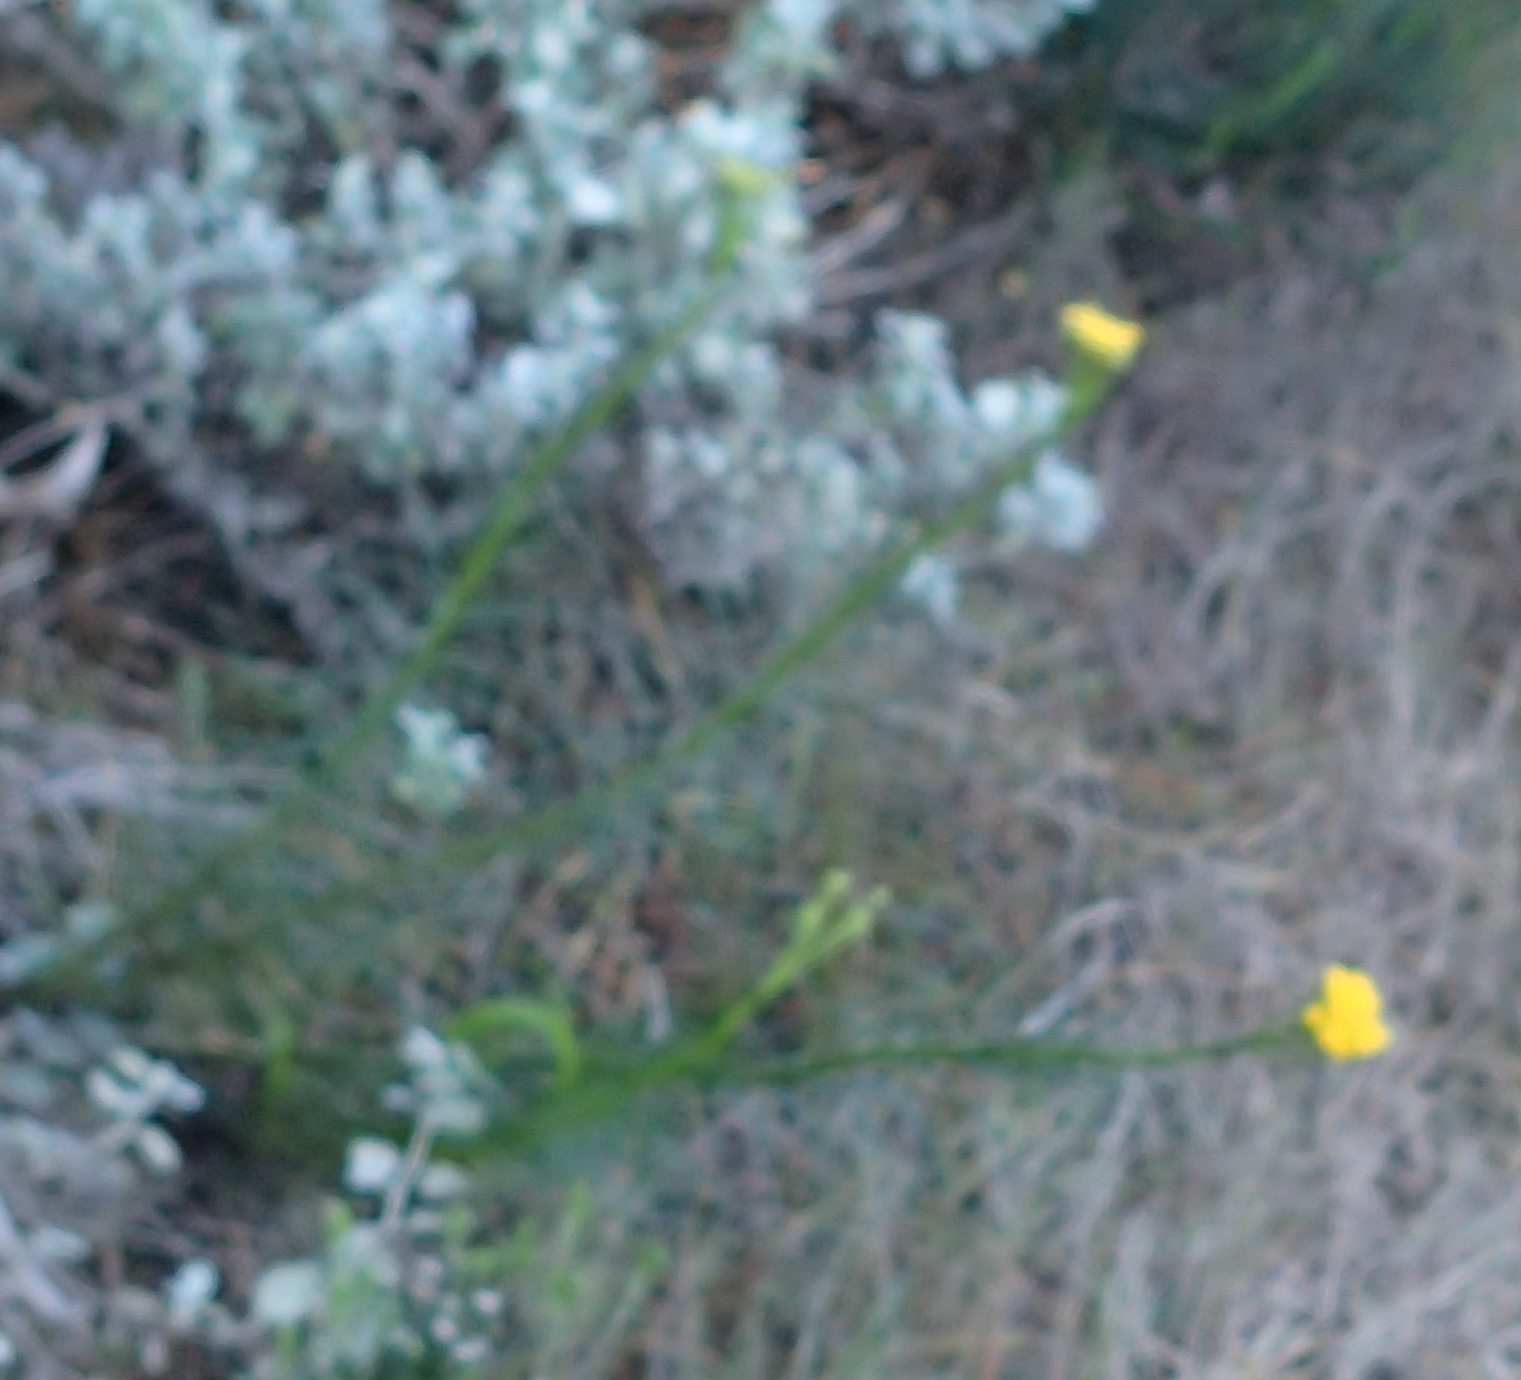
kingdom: Plantae
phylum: Tracheophyta
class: Magnoliopsida
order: Asterales
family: Asteraceae
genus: Athanasia
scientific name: Athanasia linifolia
